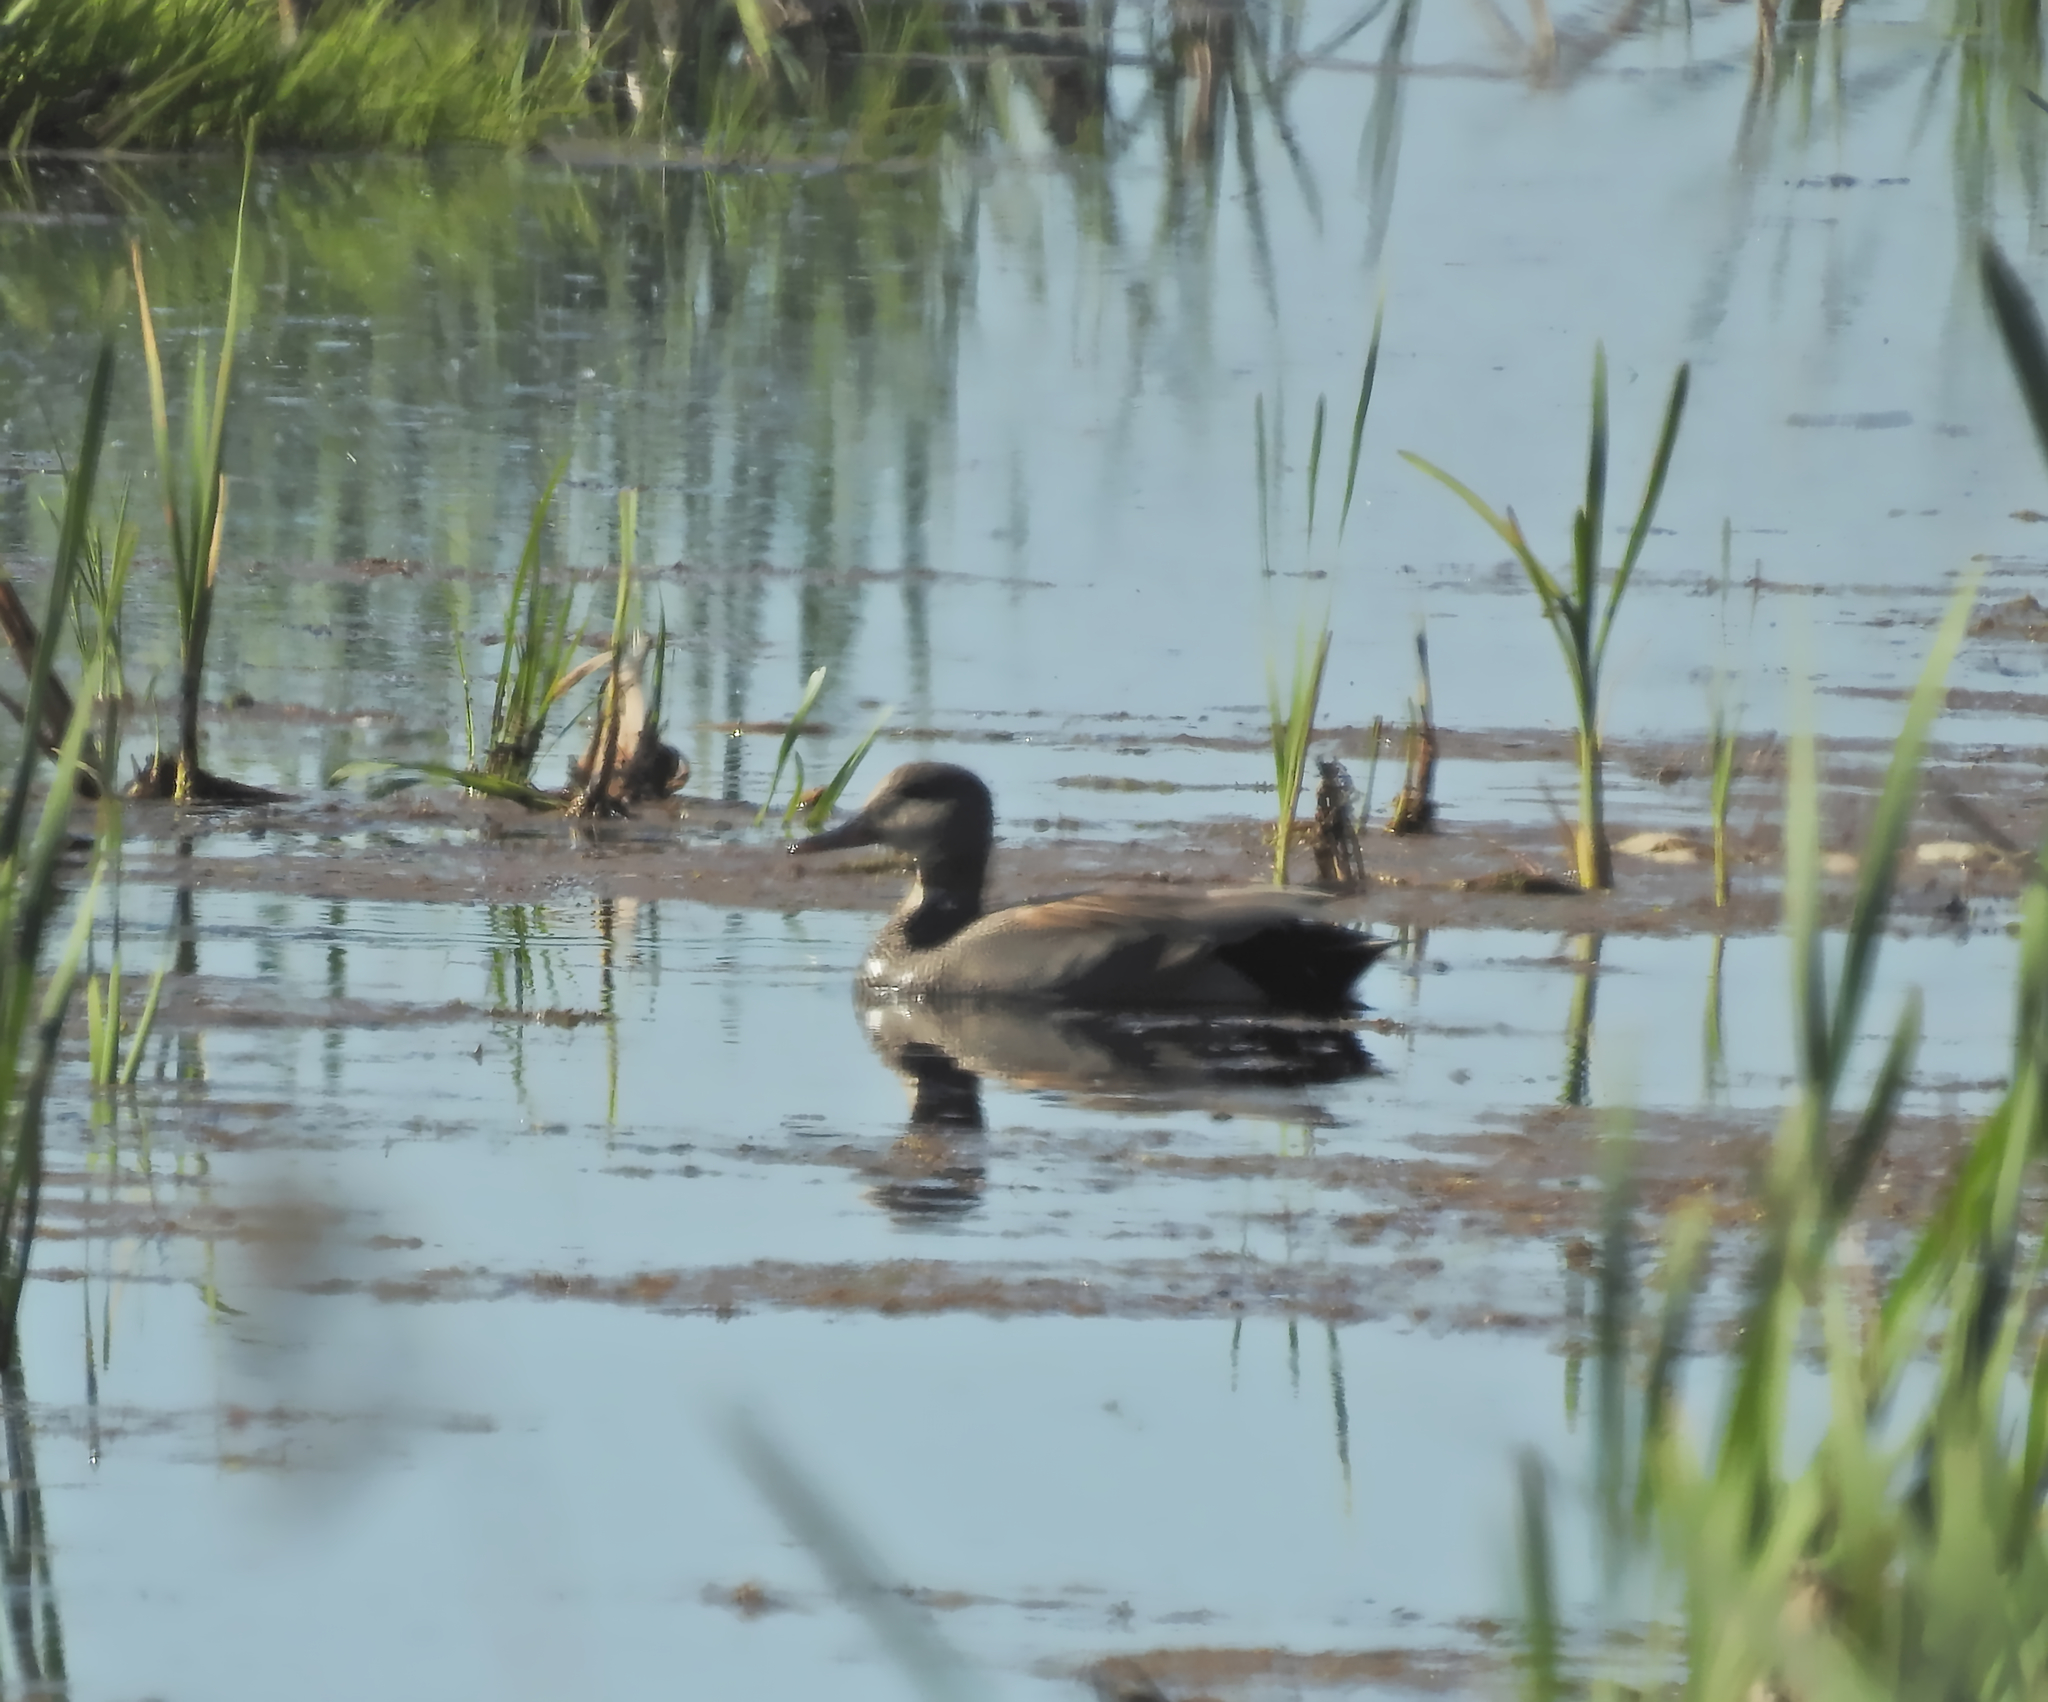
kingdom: Animalia
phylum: Chordata
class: Aves
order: Anseriformes
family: Anatidae
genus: Mareca
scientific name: Mareca strepera
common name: Gadwall
